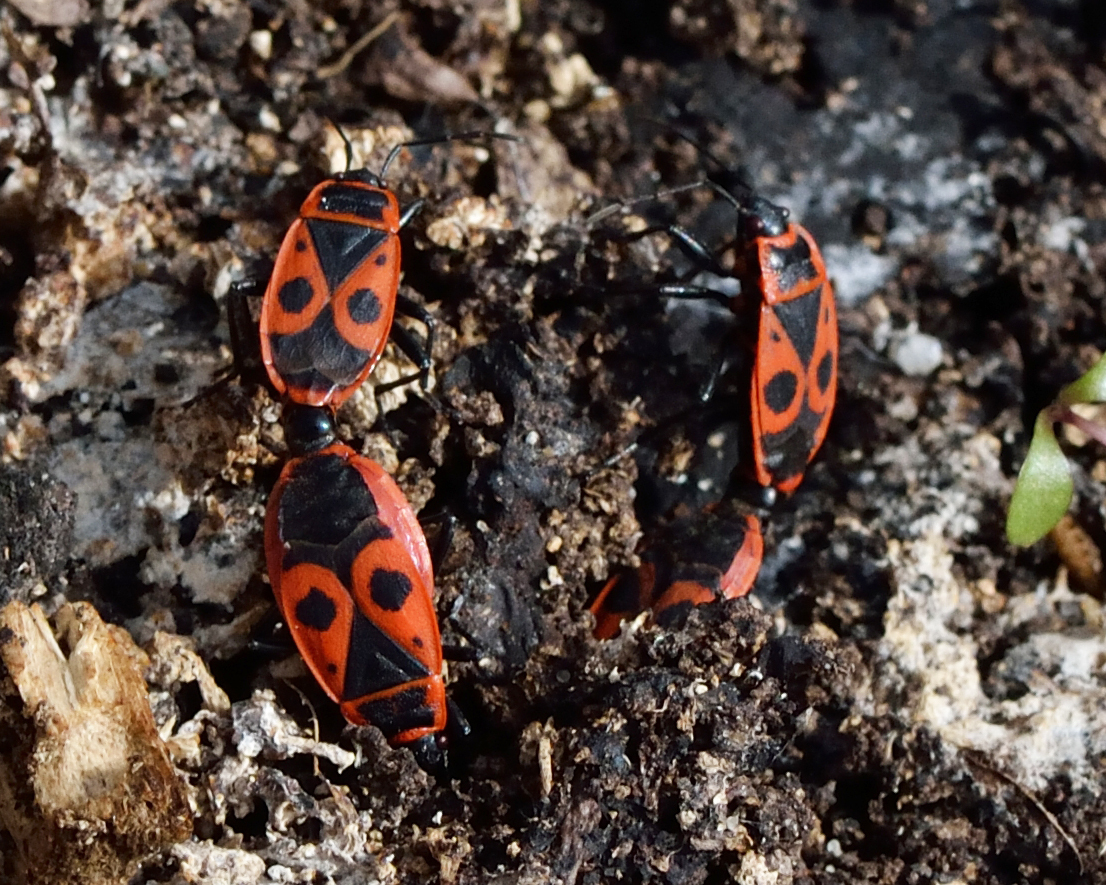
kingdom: Animalia
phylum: Arthropoda
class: Insecta
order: Hemiptera
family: Pyrrhocoridae
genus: Pyrrhocoris
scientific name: Pyrrhocoris apterus
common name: Firebug
